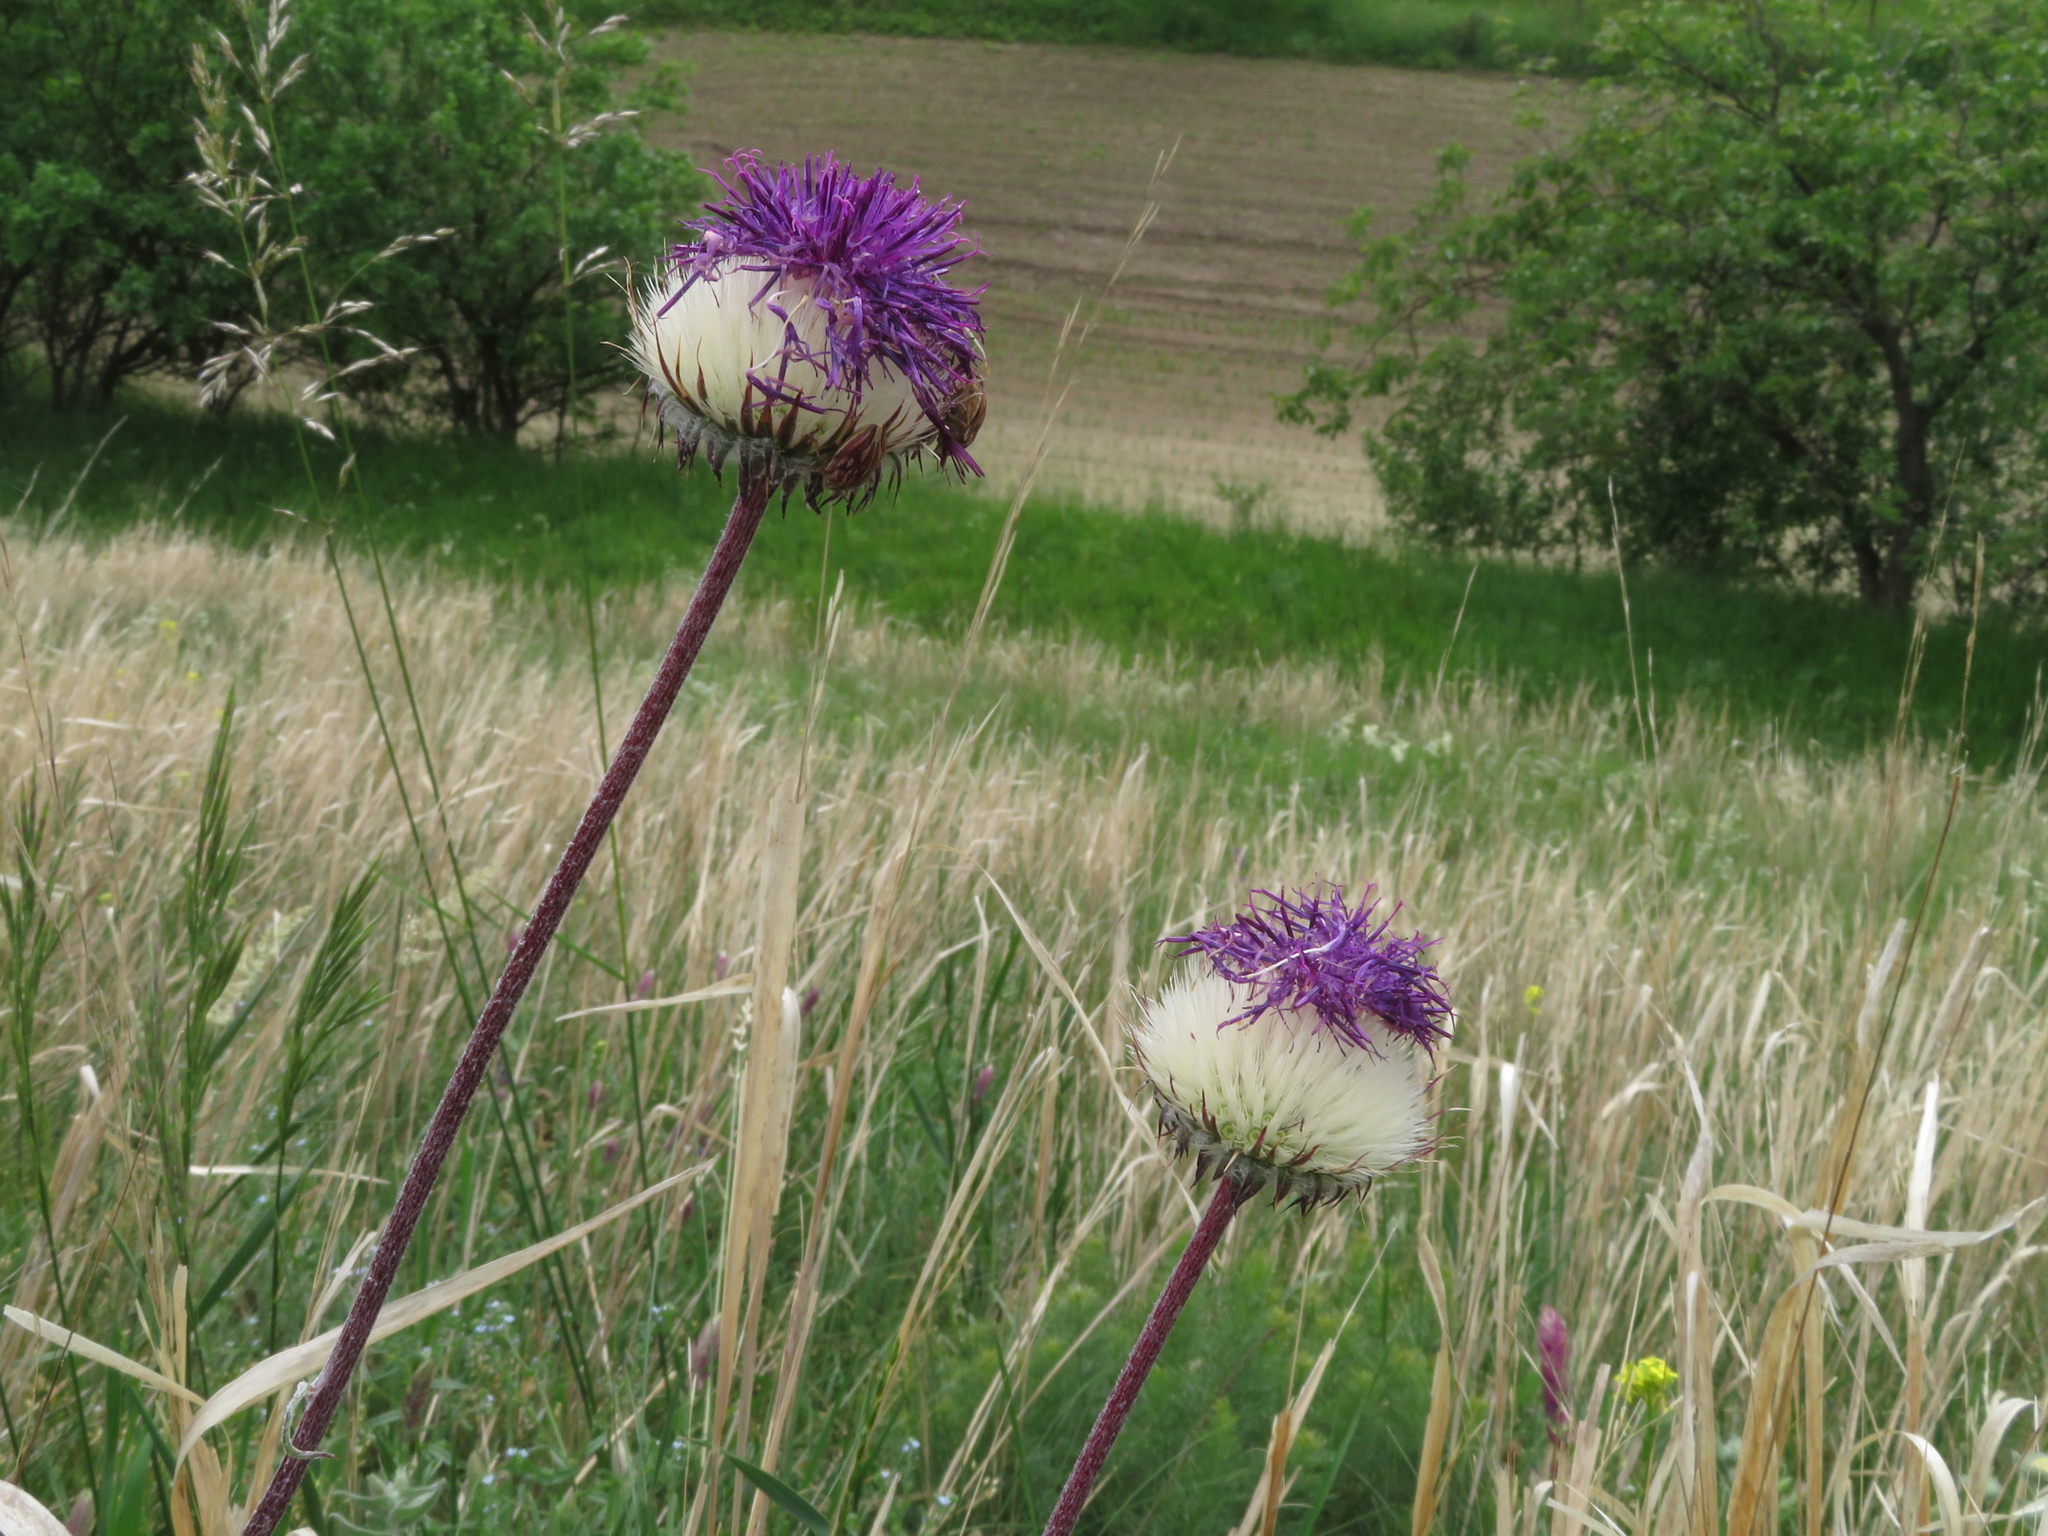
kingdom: Plantae
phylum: Tracheophyta
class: Magnoliopsida
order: Asterales
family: Asteraceae
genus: Jurinea
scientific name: Jurinea mollis
